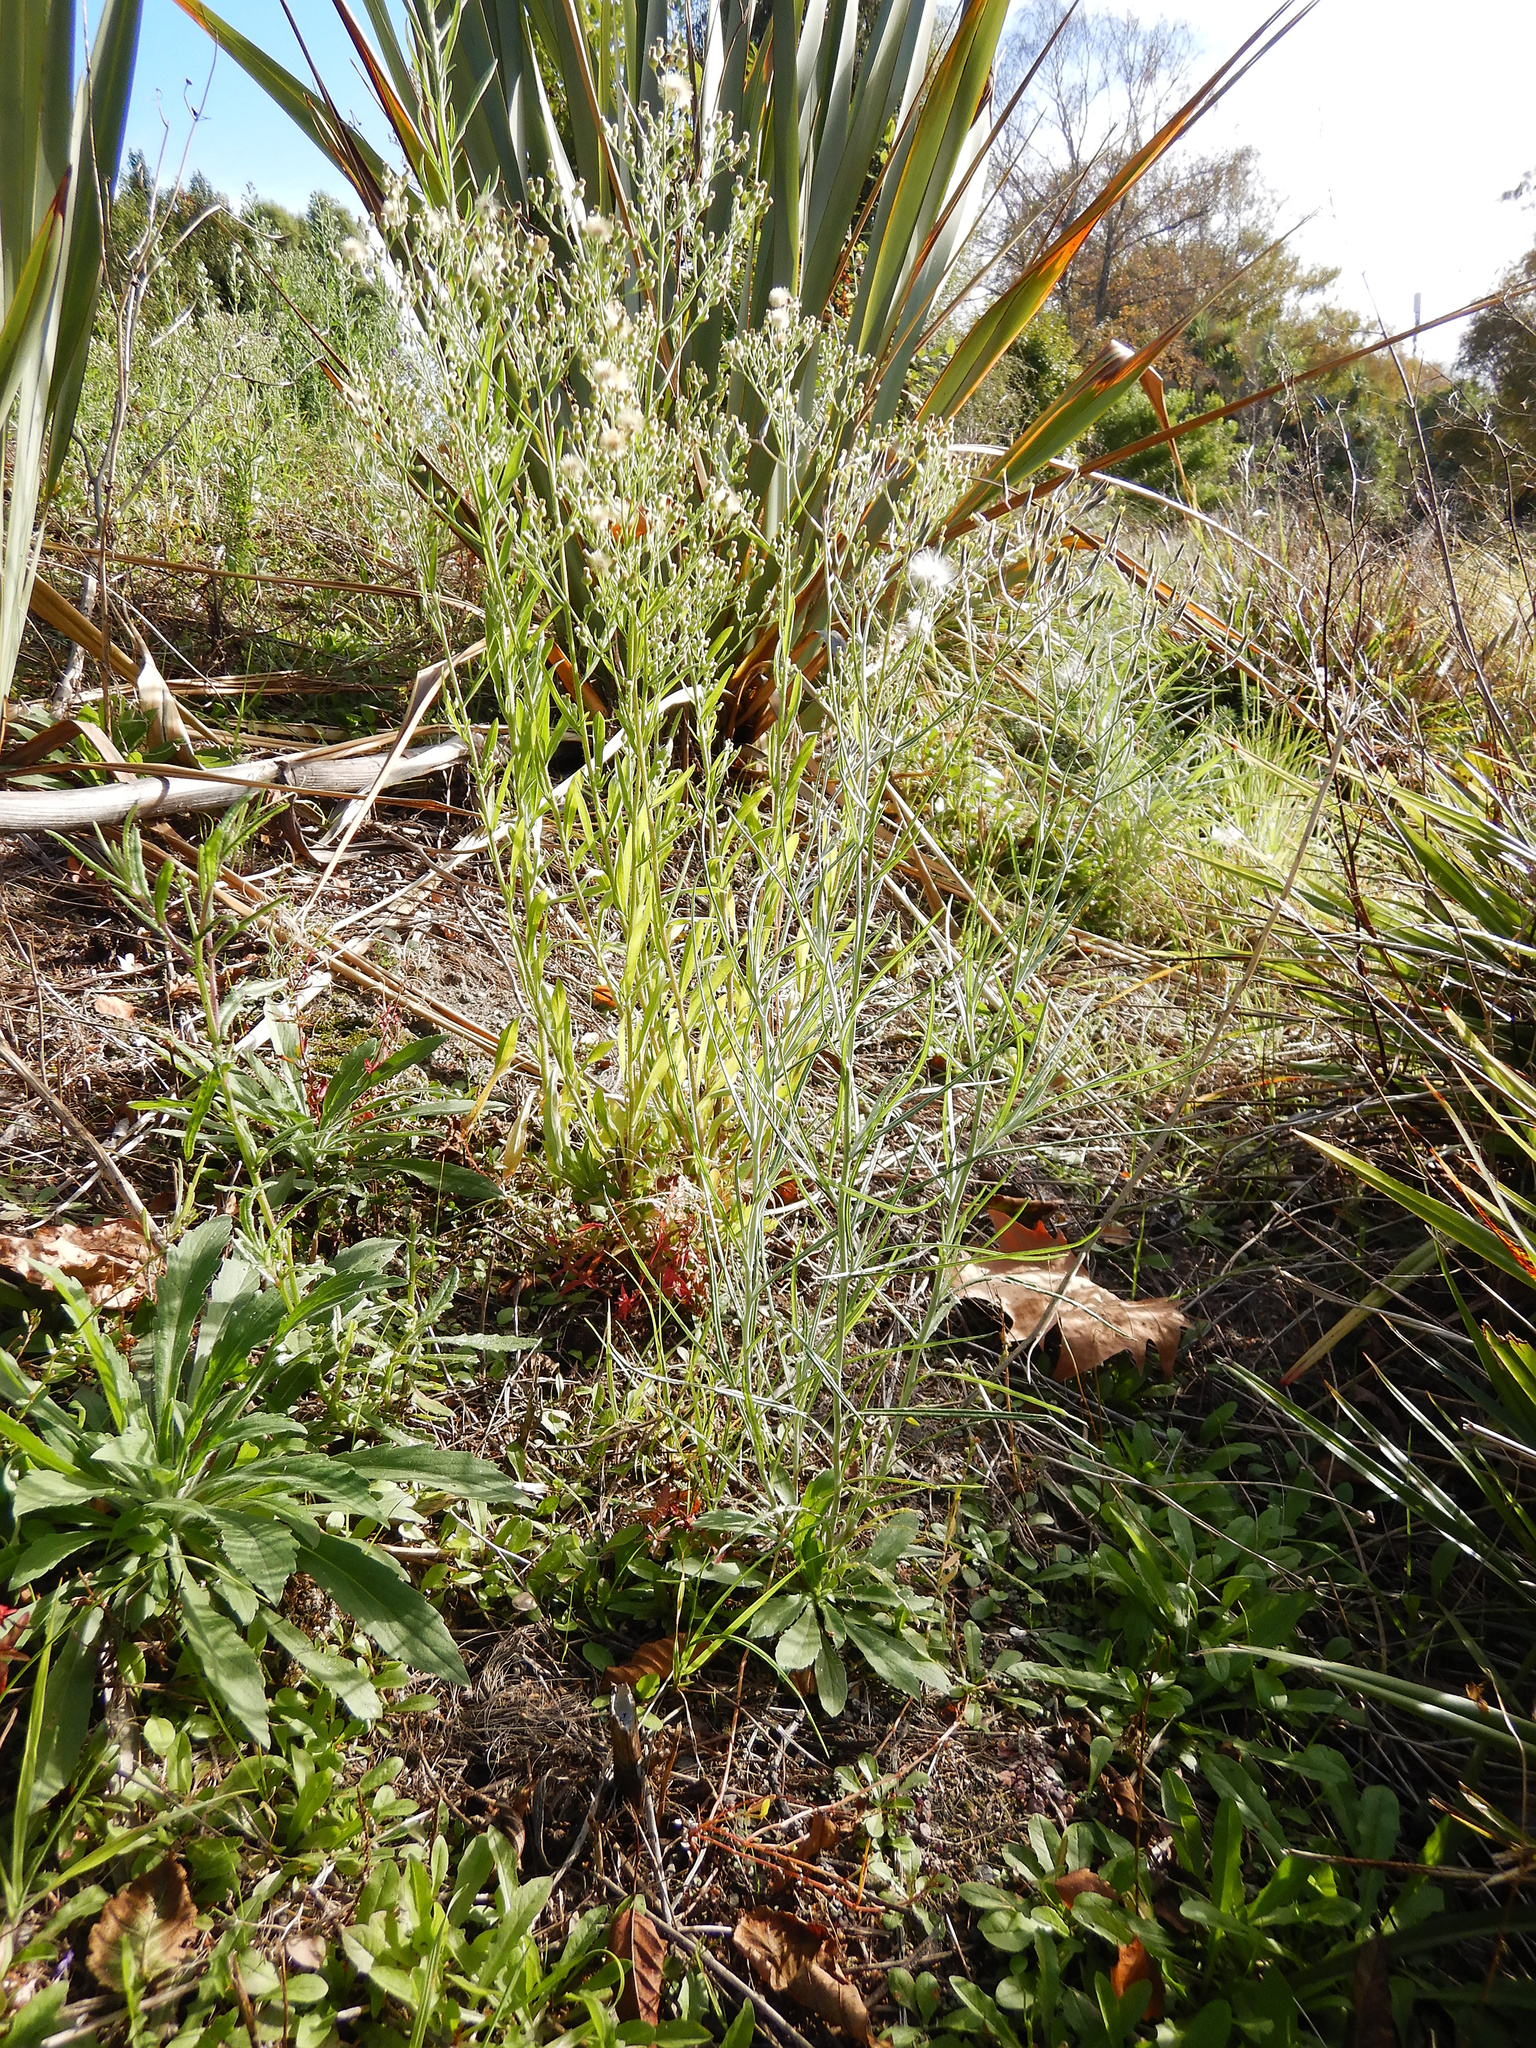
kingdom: Plantae
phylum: Tracheophyta
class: Magnoliopsida
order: Asterales
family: Asteraceae
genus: Senecio
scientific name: Senecio quadridentatus
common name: Cotton fireweed
